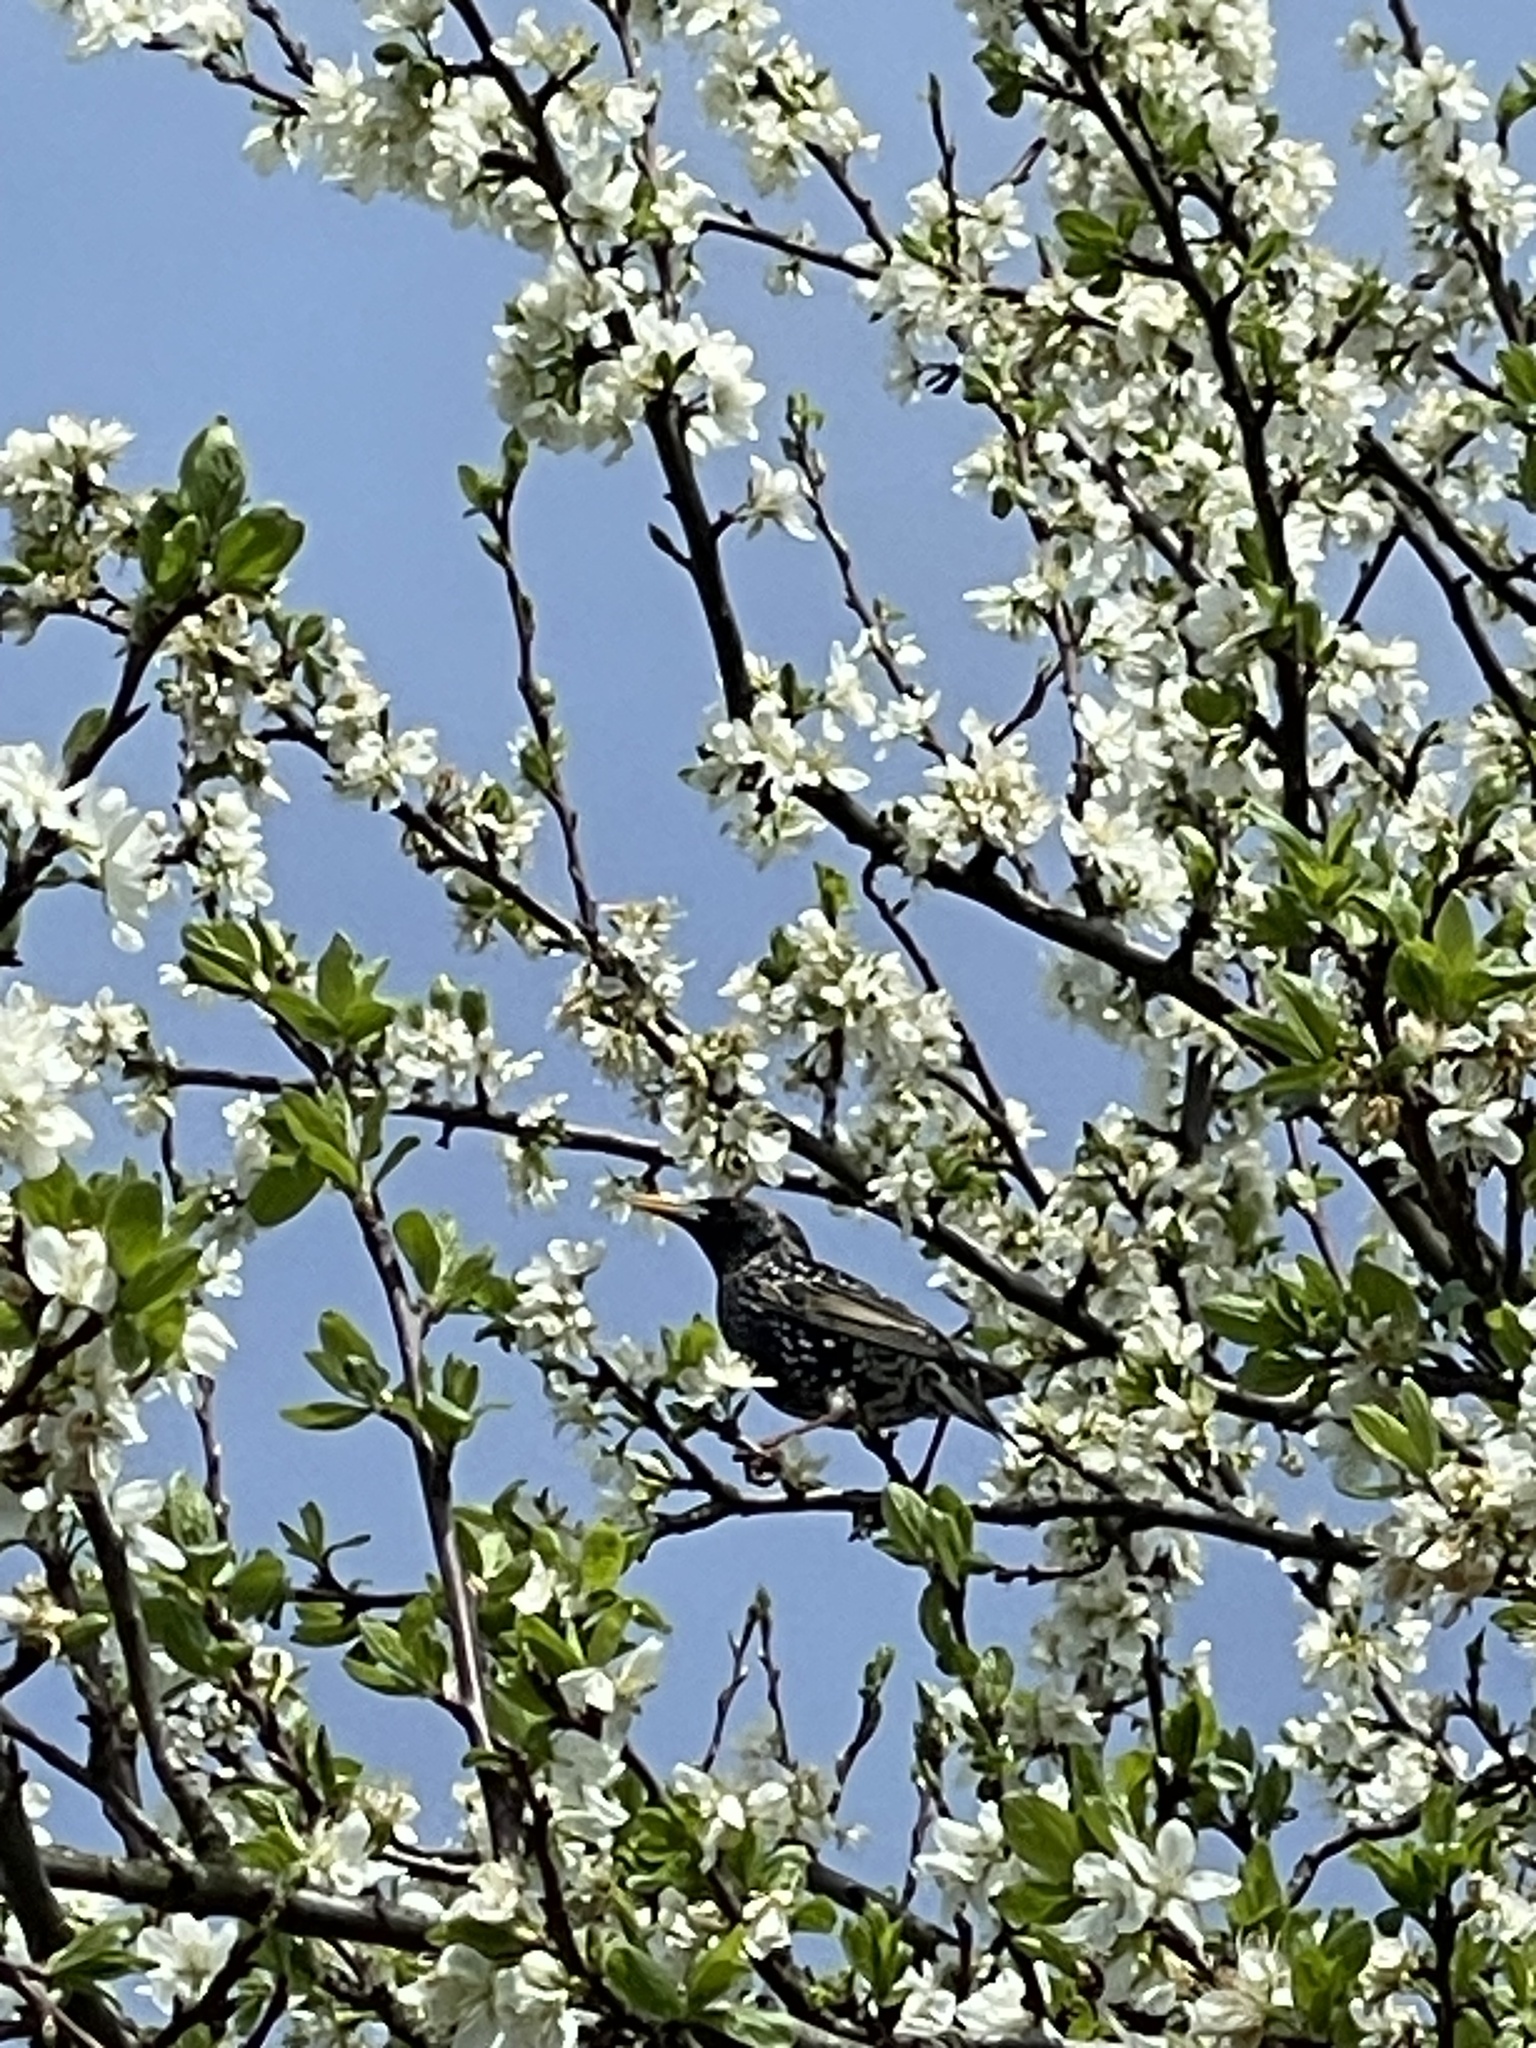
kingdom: Animalia
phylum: Chordata
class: Aves
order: Passeriformes
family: Sturnidae
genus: Sturnus
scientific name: Sturnus vulgaris
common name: Common starling
